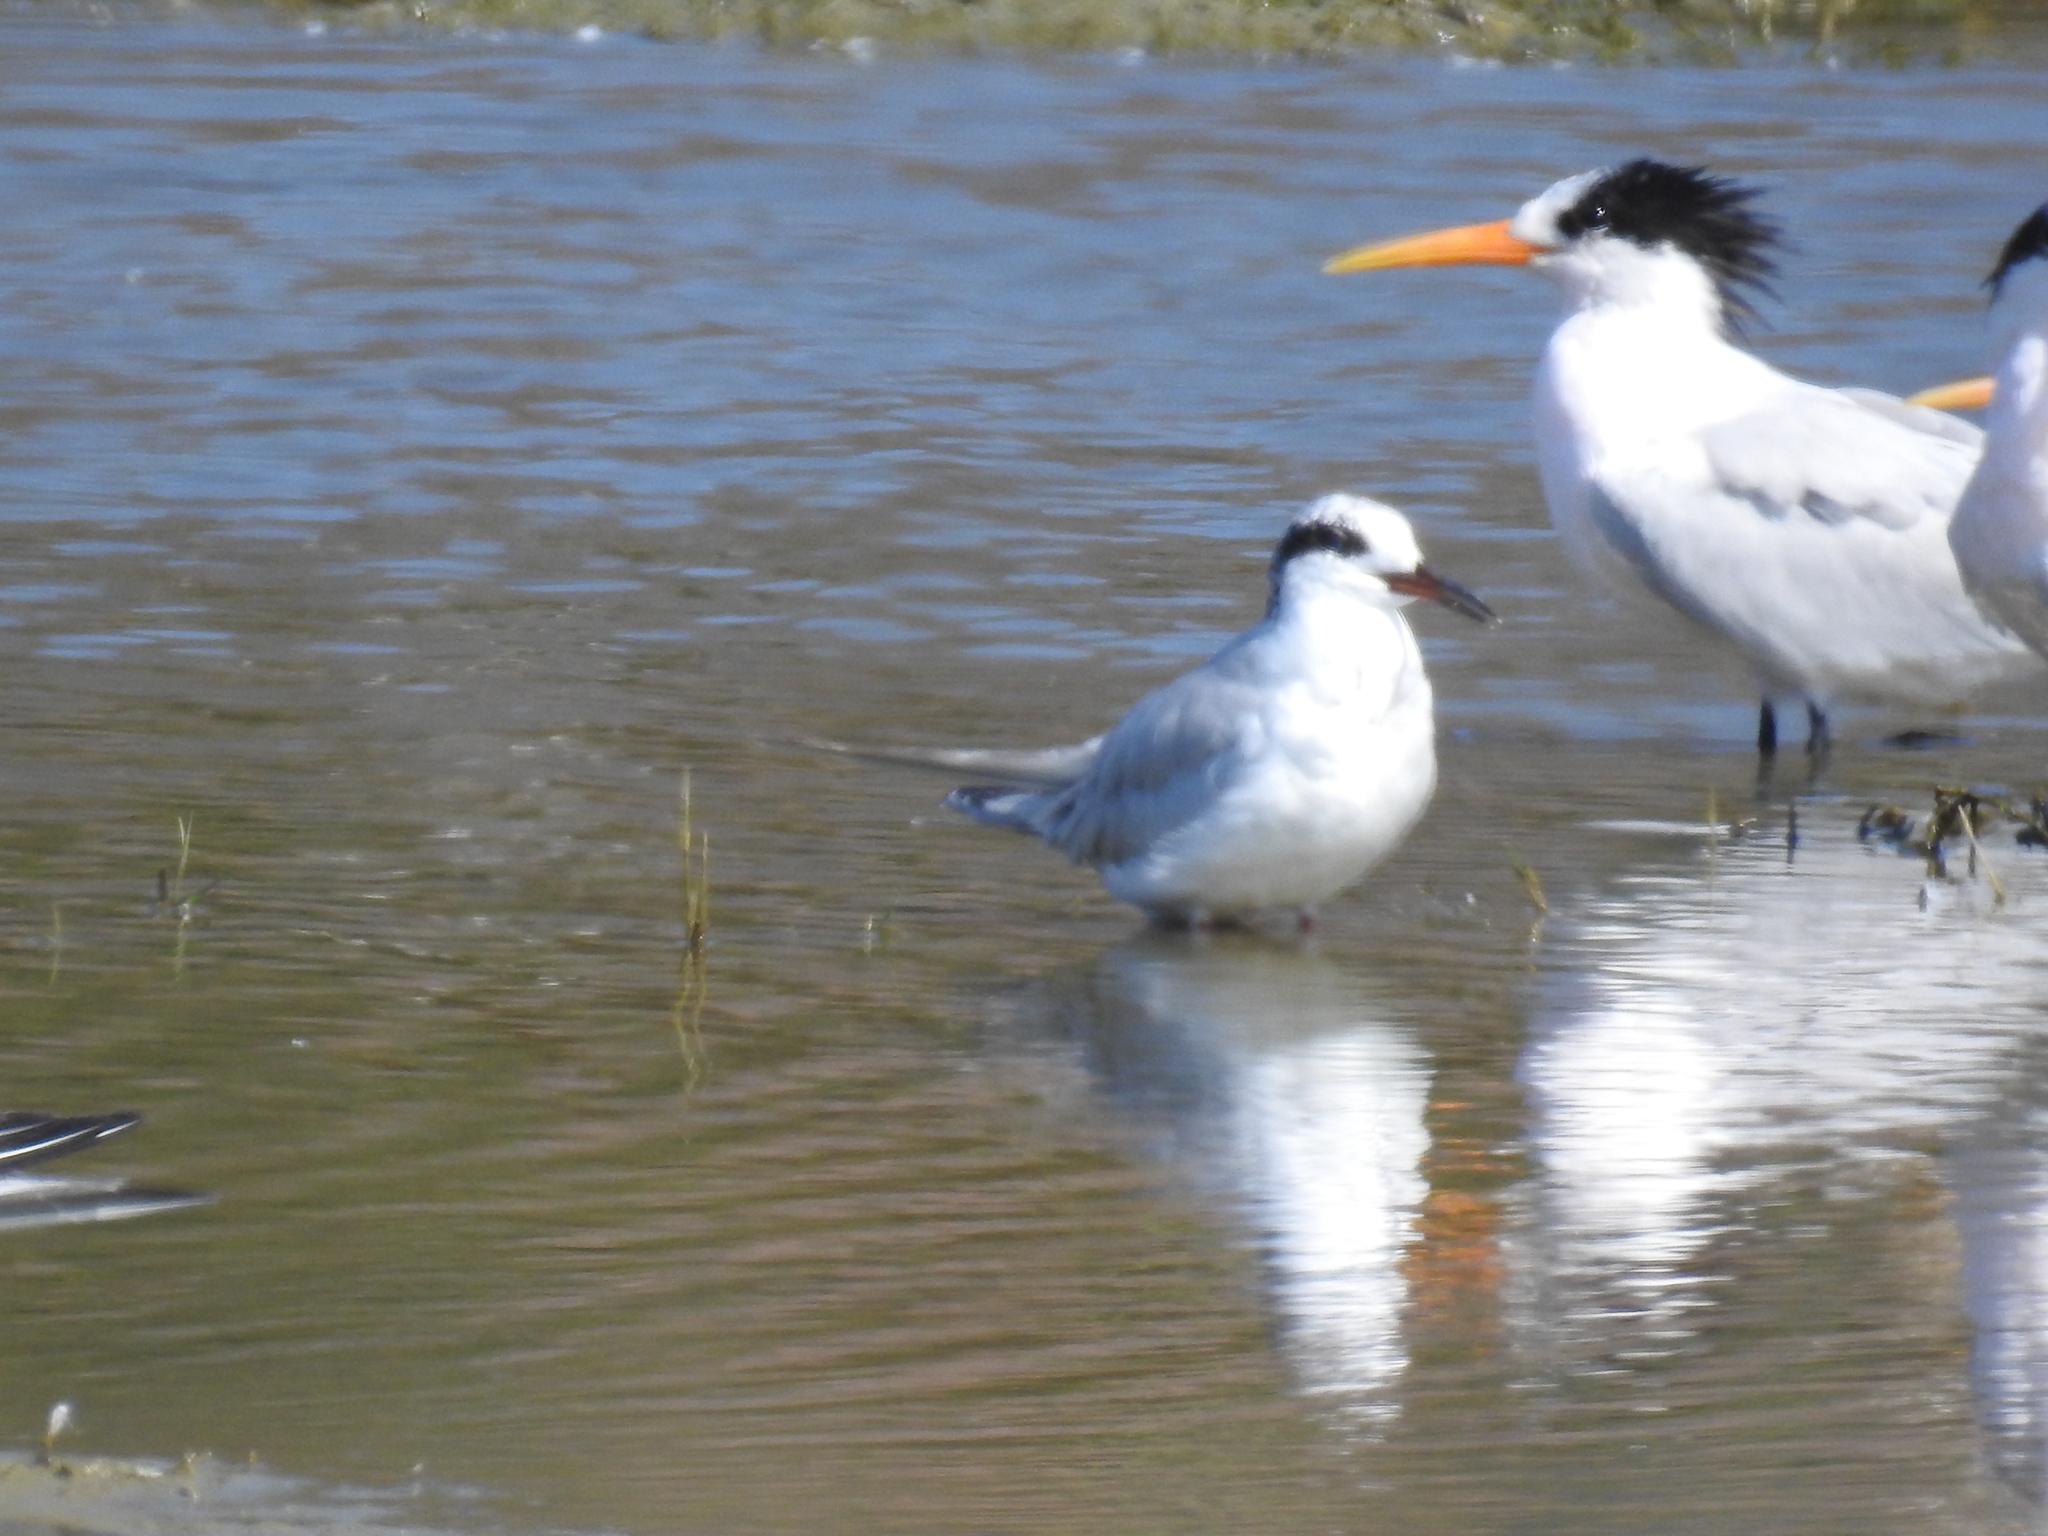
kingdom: Animalia
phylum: Chordata
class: Aves
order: Charadriiformes
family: Laridae
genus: Sterna
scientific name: Sterna forsteri
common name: Forster's tern
